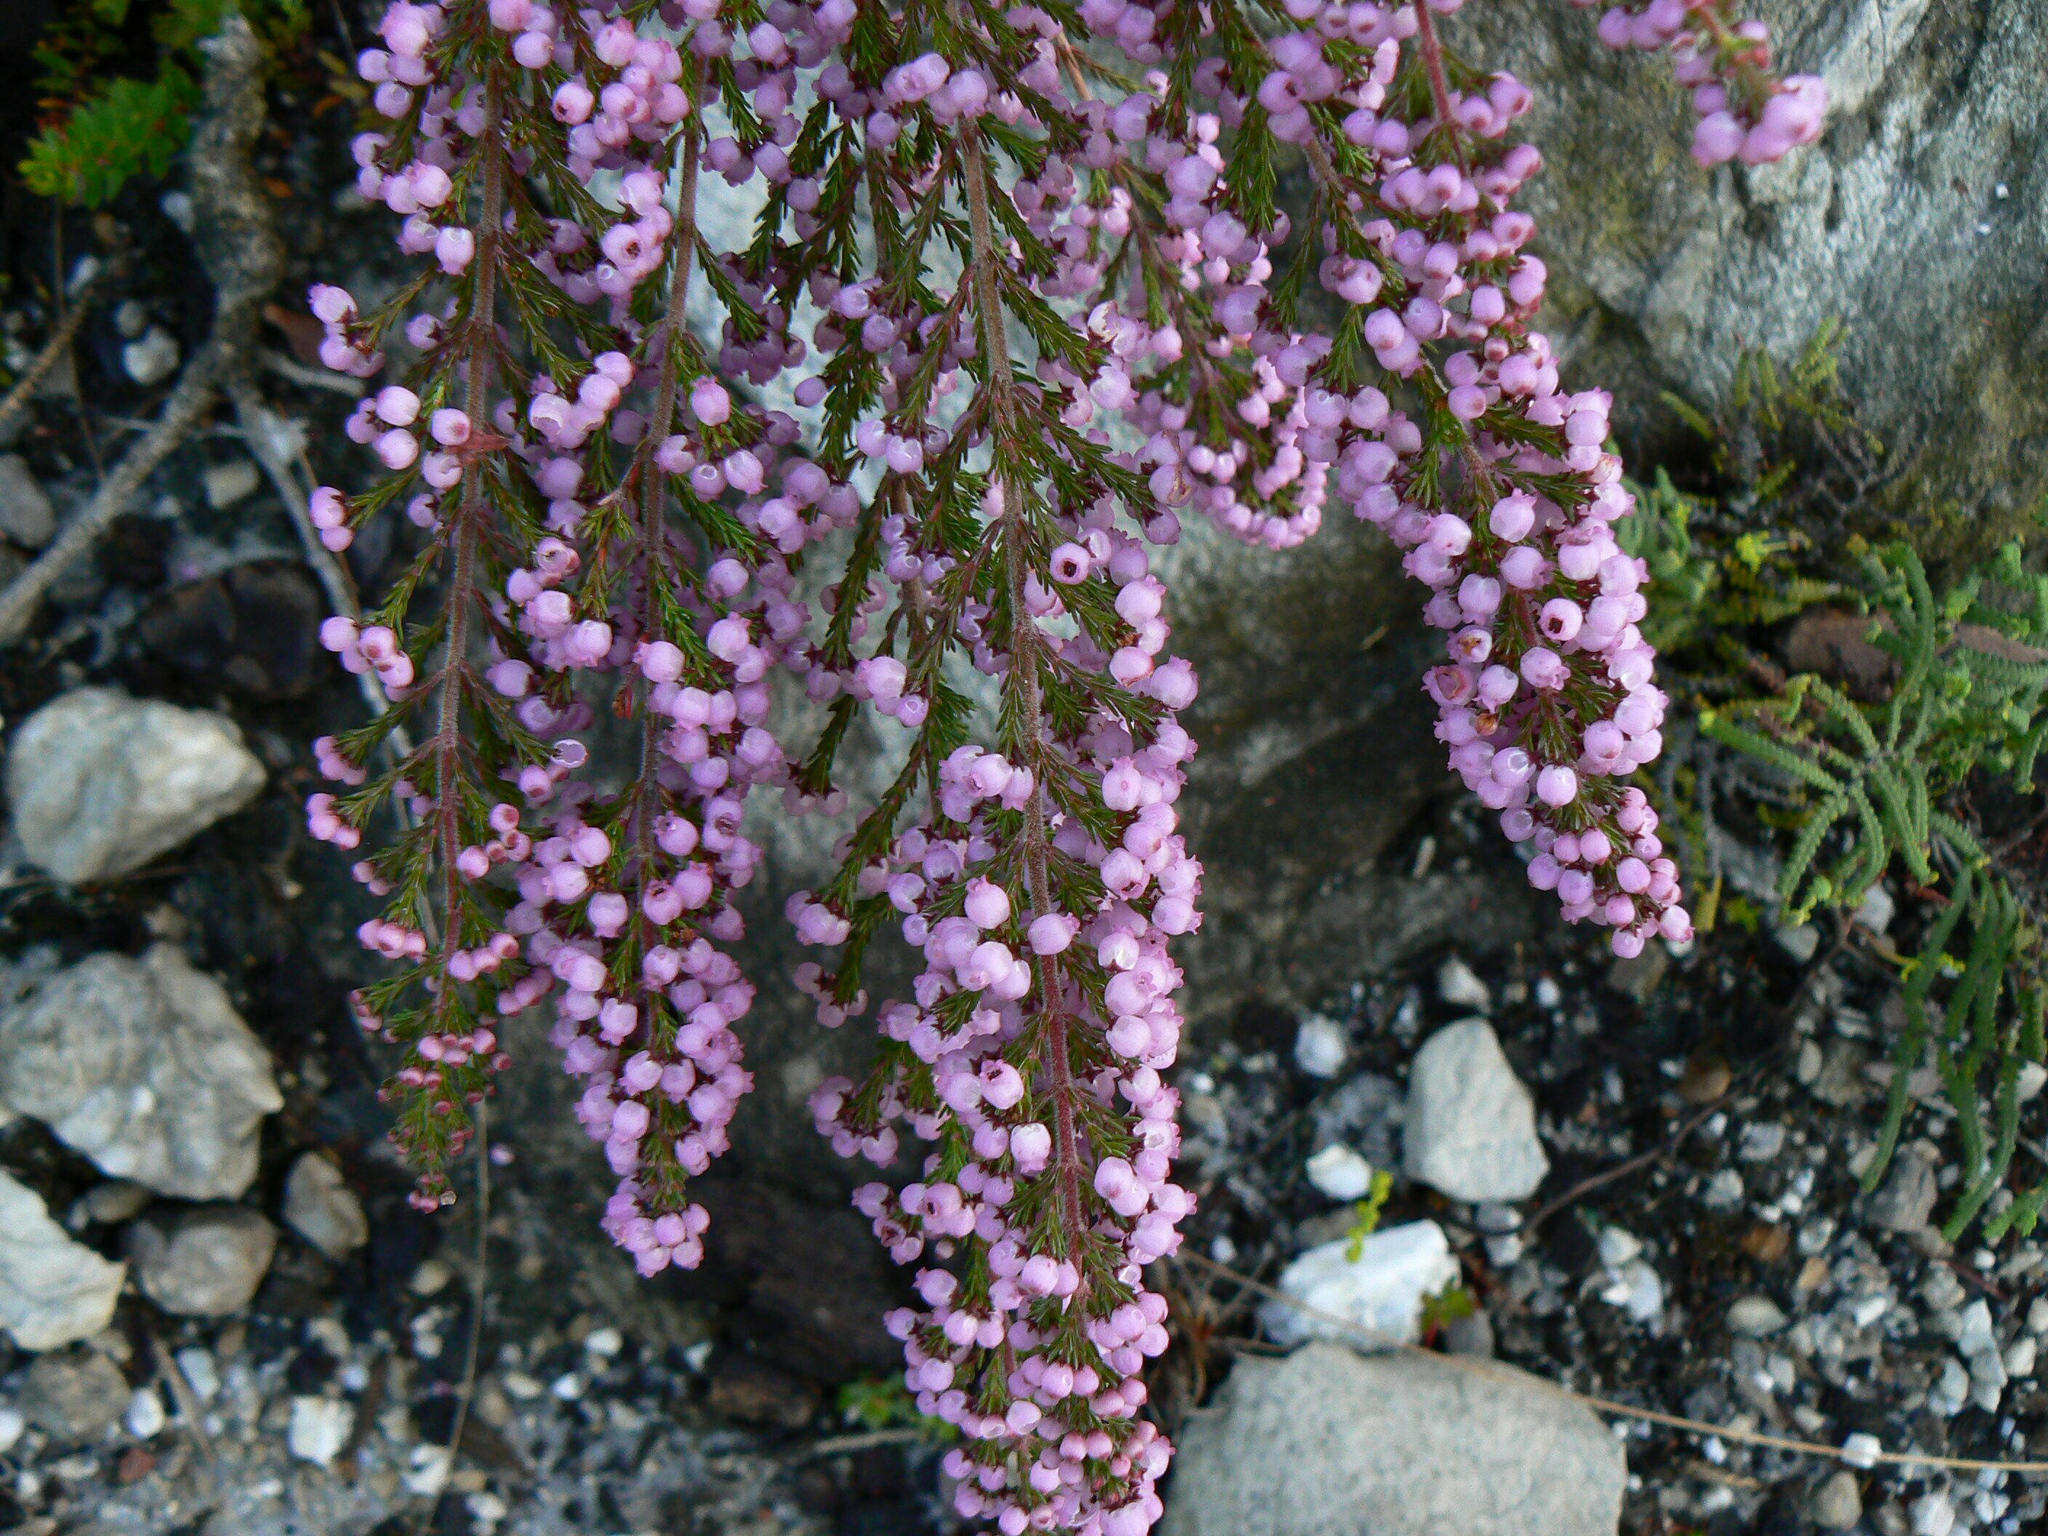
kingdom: Plantae
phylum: Tracheophyta
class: Magnoliopsida
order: Ericales
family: Ericaceae
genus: Erica
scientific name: Erica gracilis
